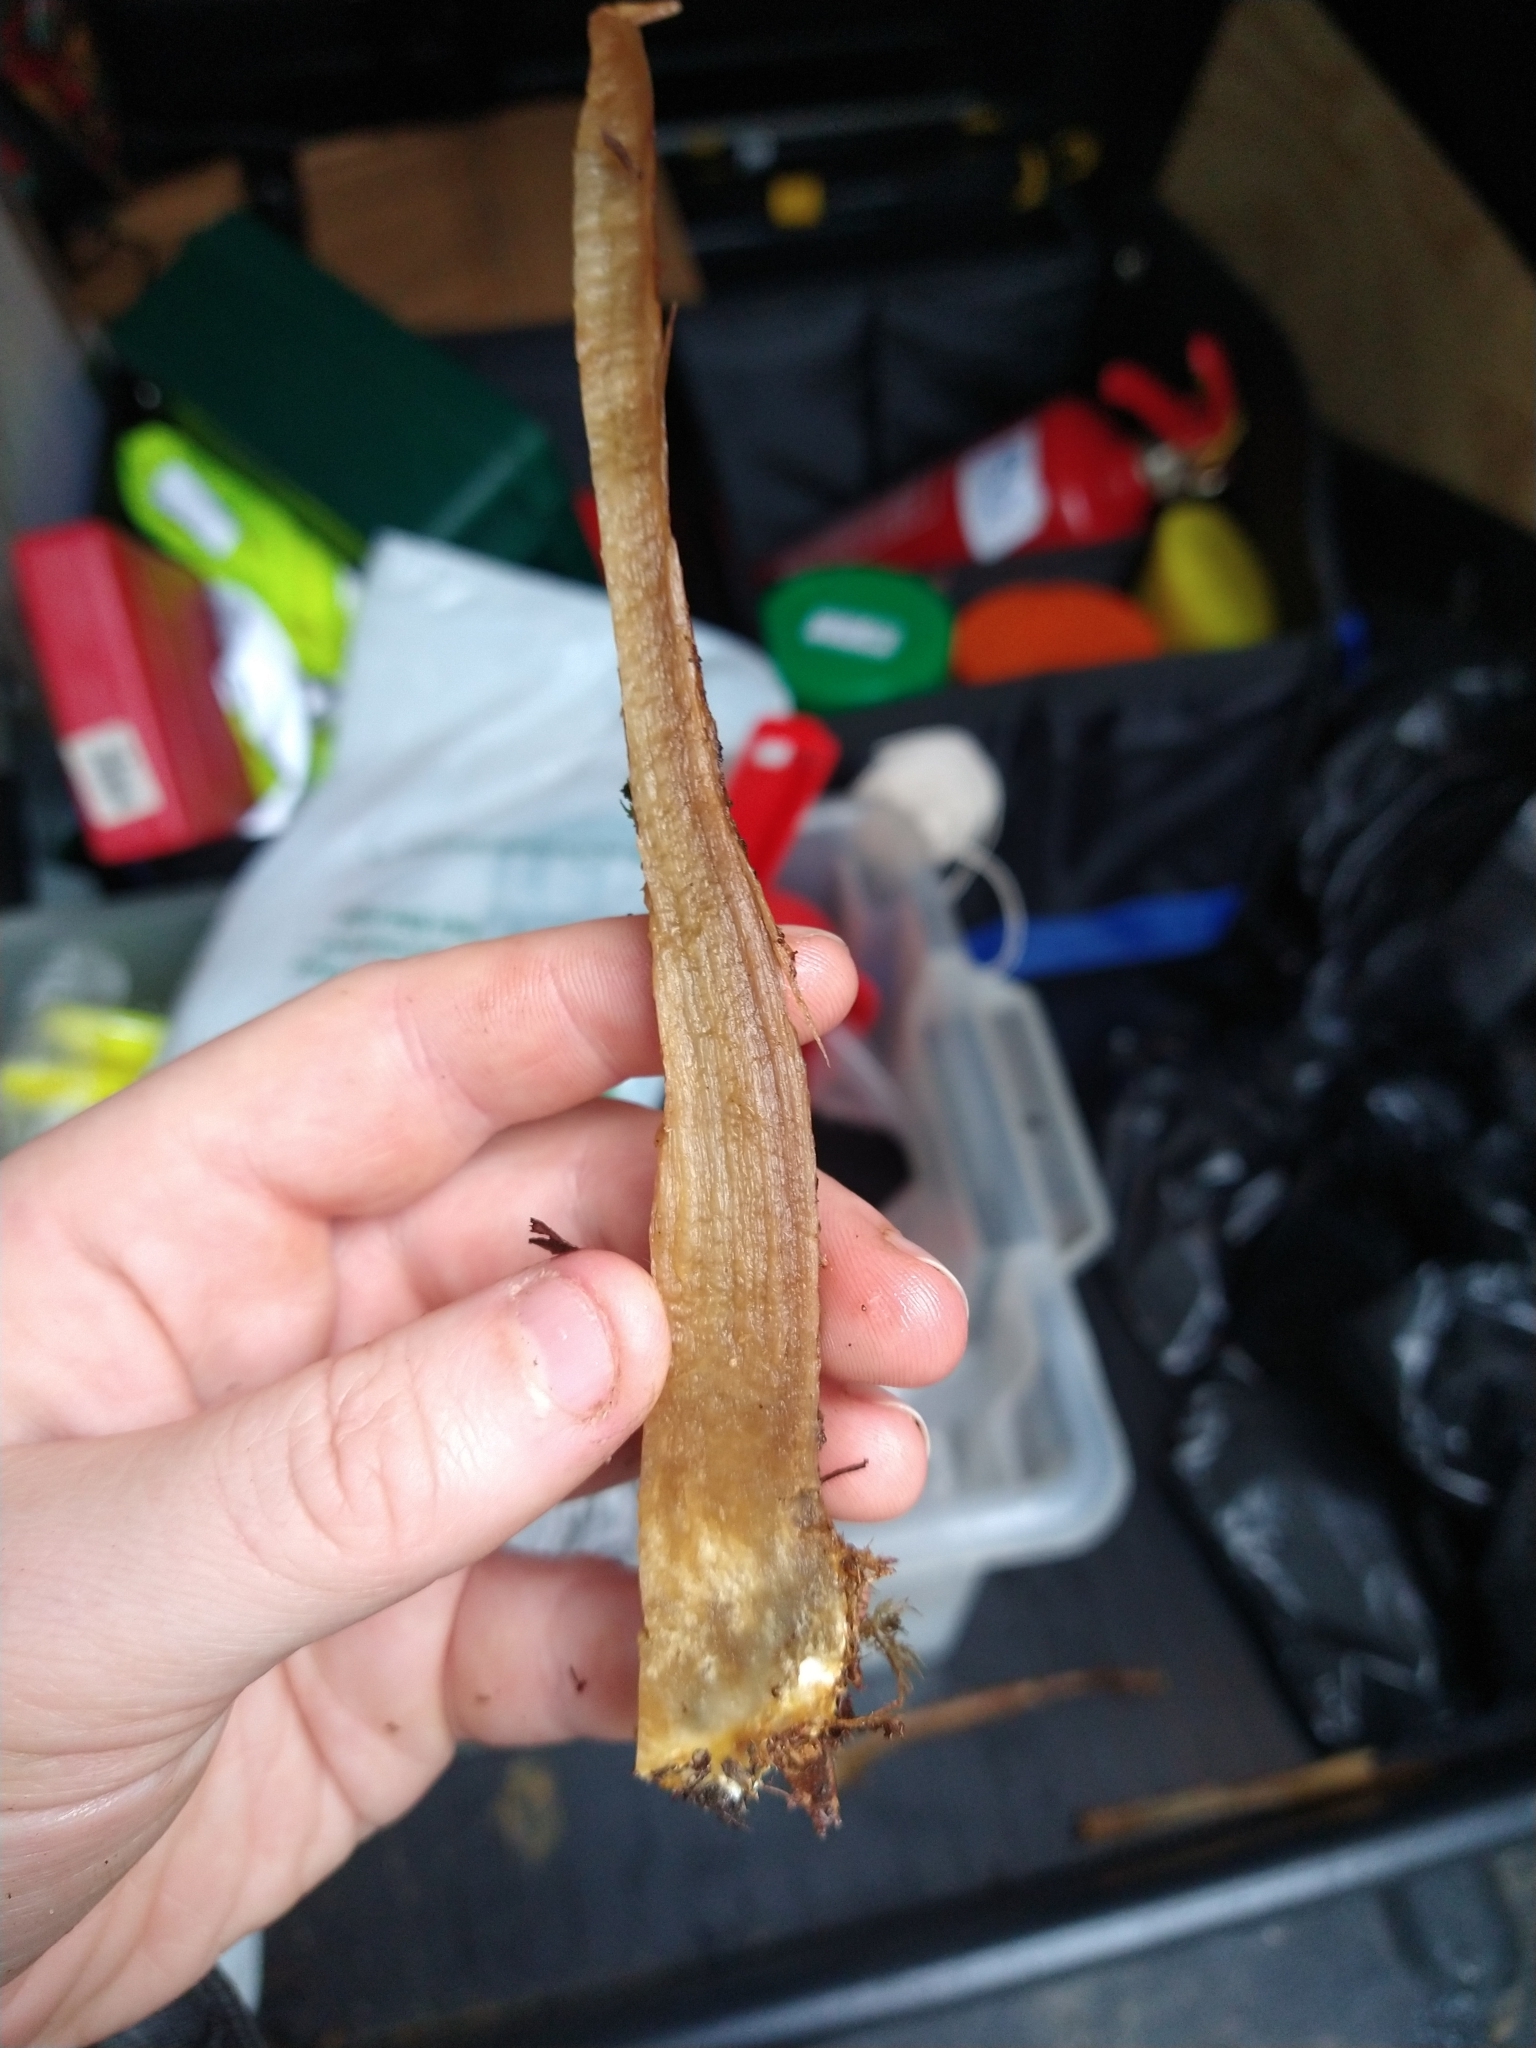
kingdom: Fungi
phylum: Basidiomycota
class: Agaricomycetes
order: Boletales
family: Boletaceae
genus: Leccinum
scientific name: Leccinum scabrum
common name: Blushing bolete
